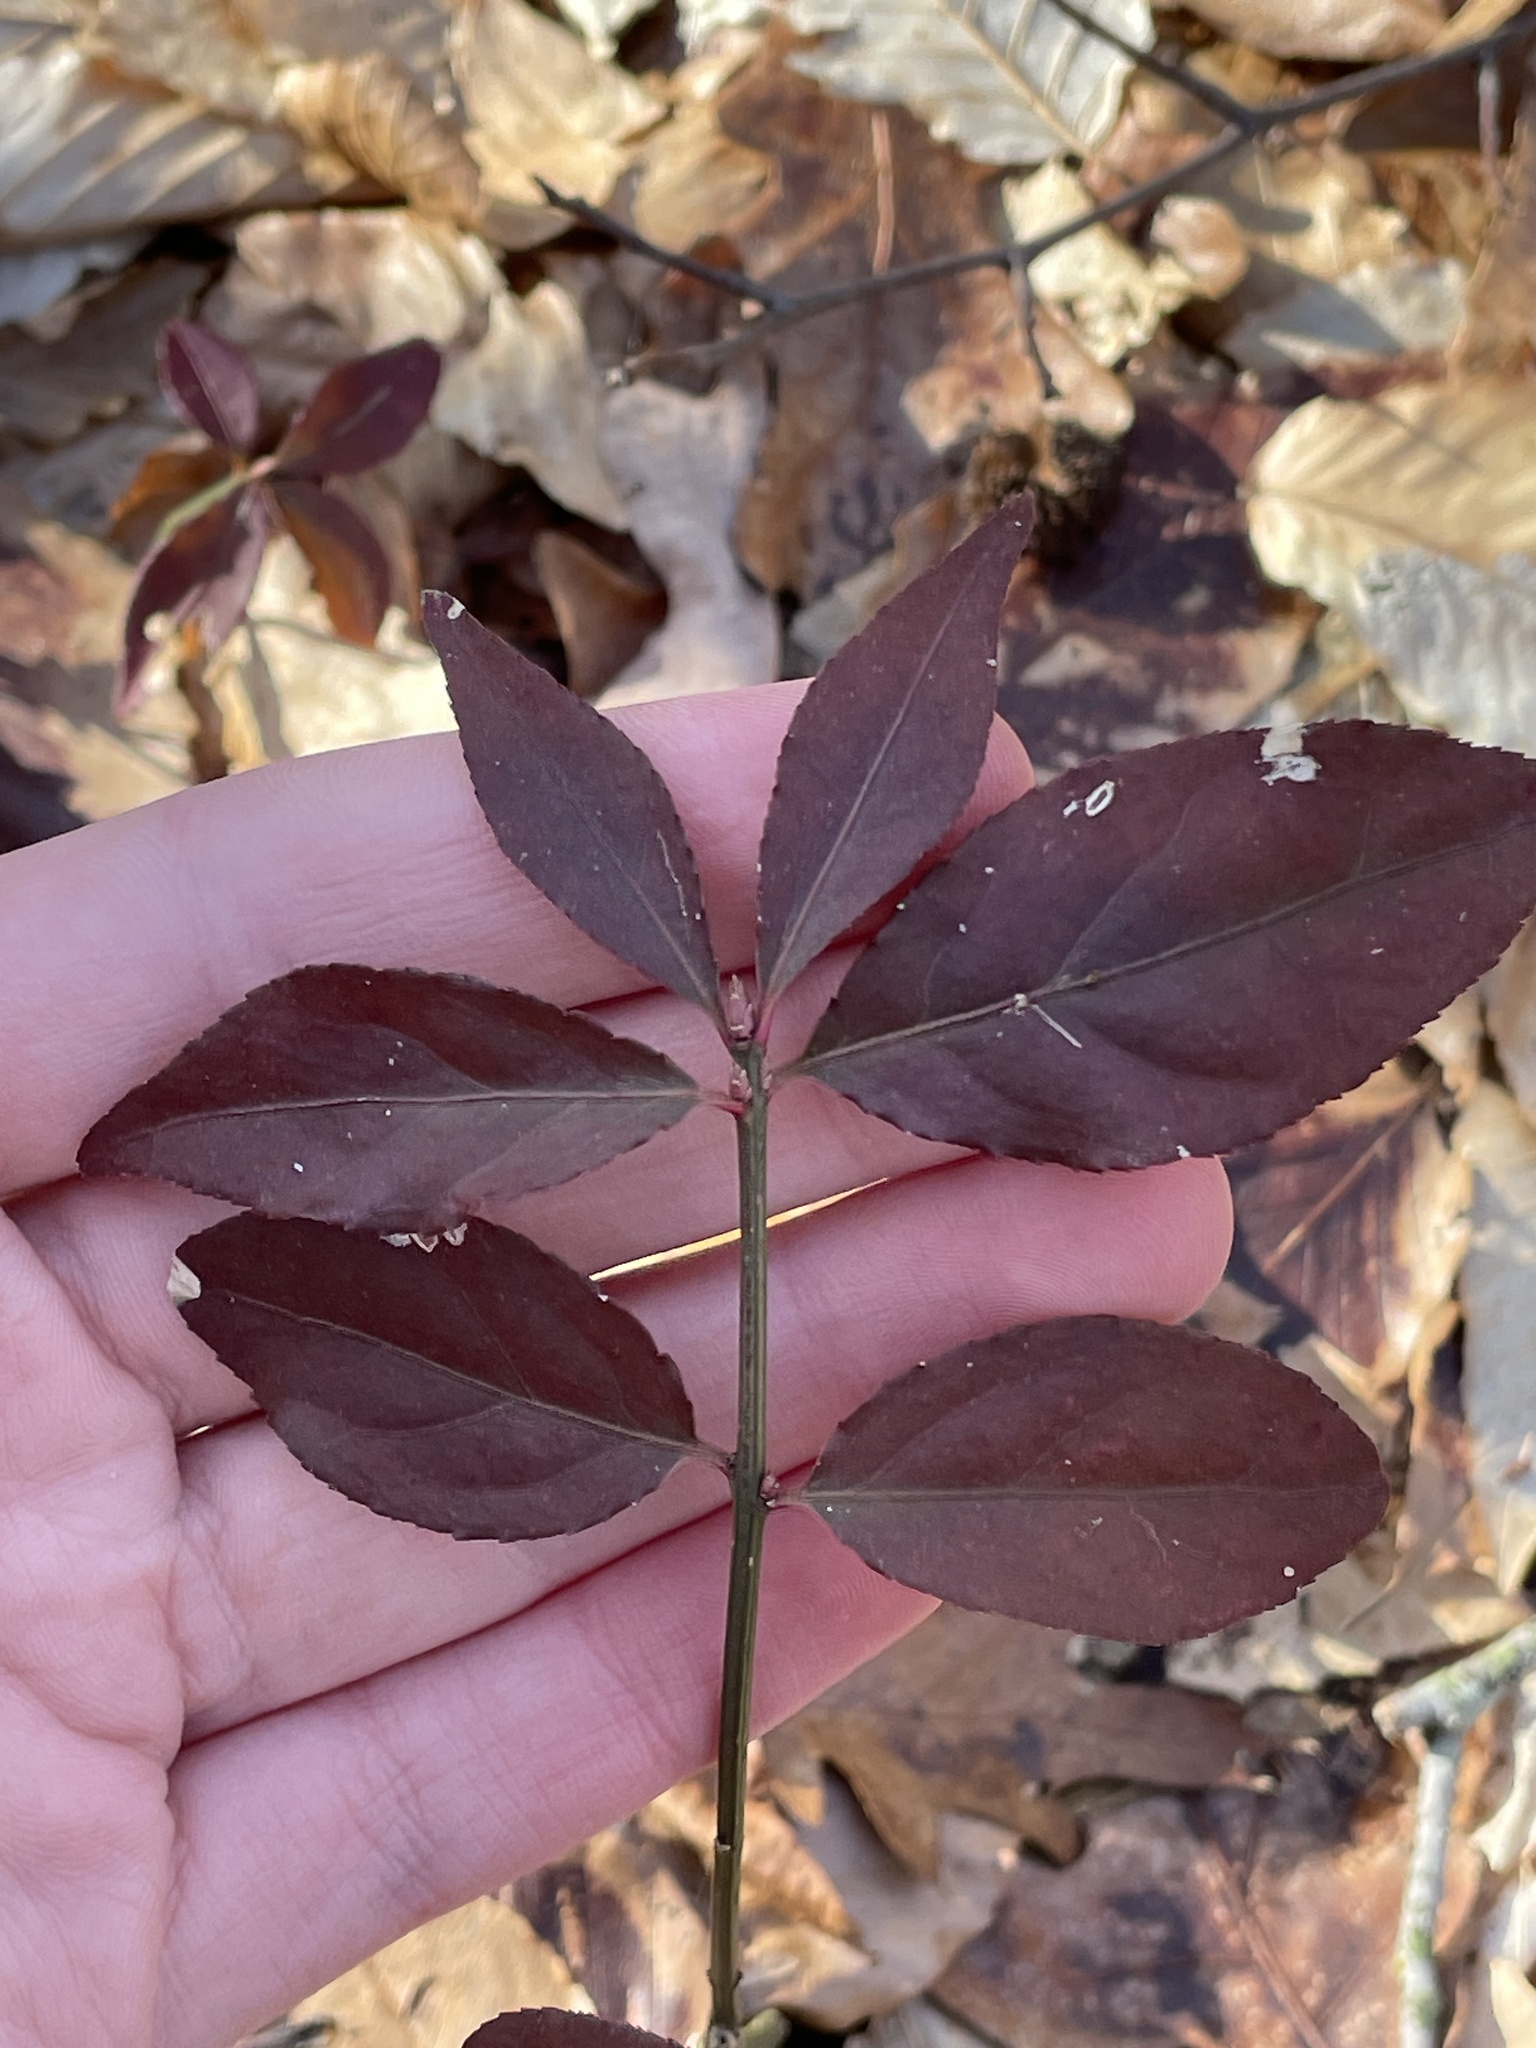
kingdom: Plantae
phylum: Tracheophyta
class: Magnoliopsida
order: Celastrales
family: Celastraceae
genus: Euonymus
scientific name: Euonymus alatus
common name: Winged euonymus
